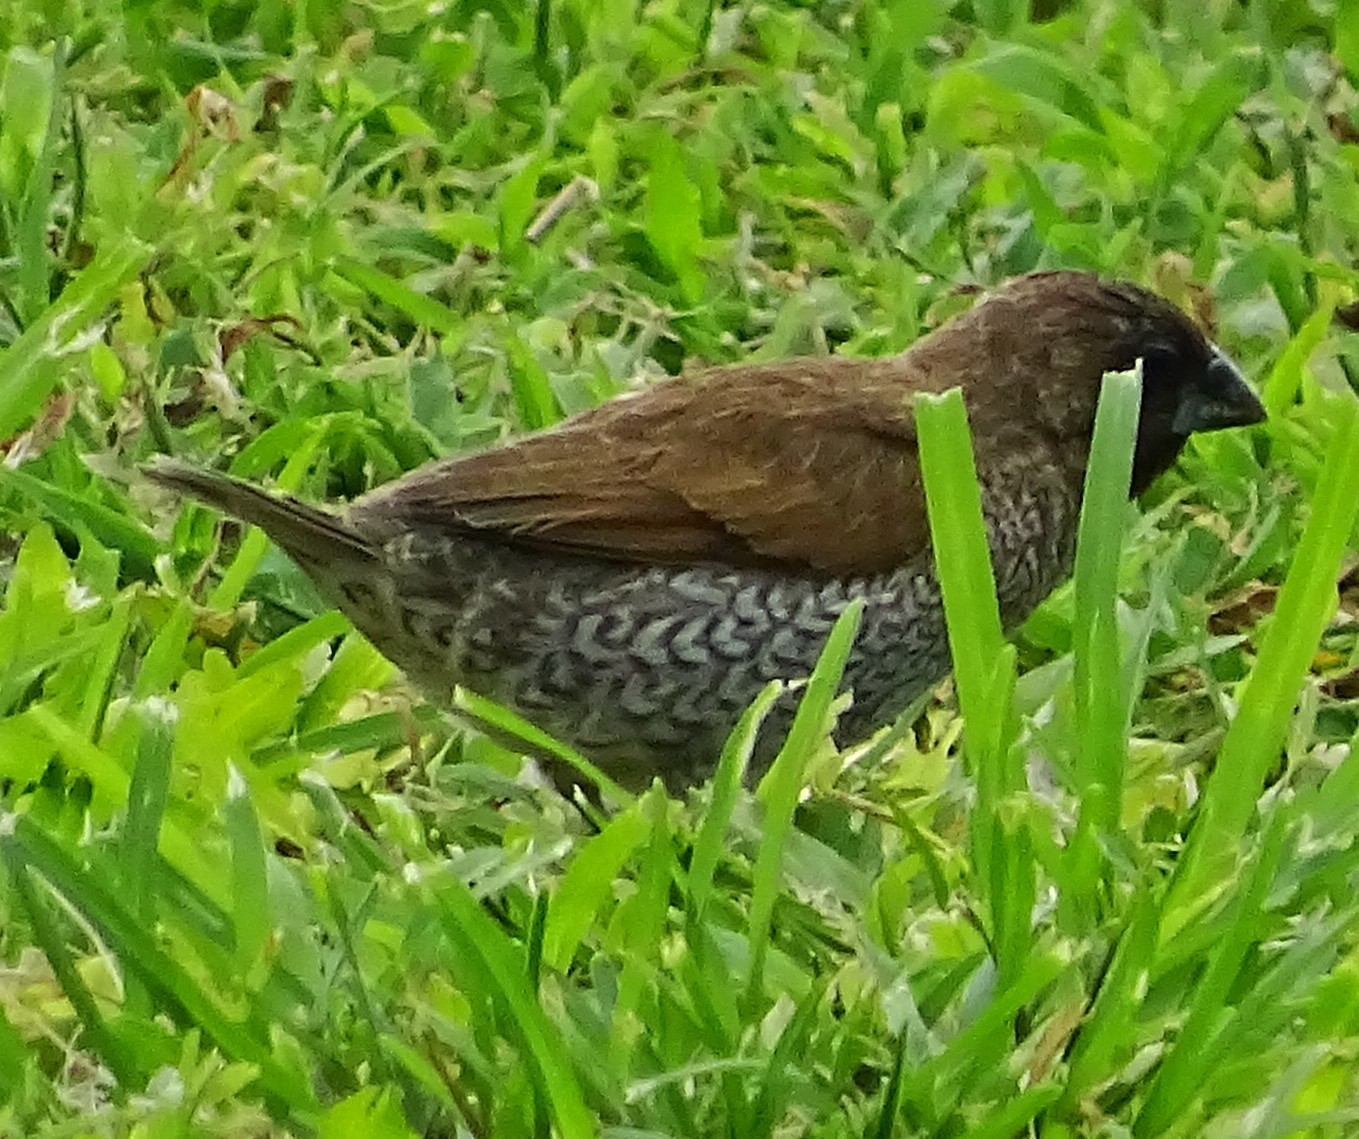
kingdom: Animalia
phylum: Chordata
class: Aves
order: Passeriformes
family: Estrildidae
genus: Lonchura
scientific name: Lonchura punctulata
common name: Scaly-breasted munia
